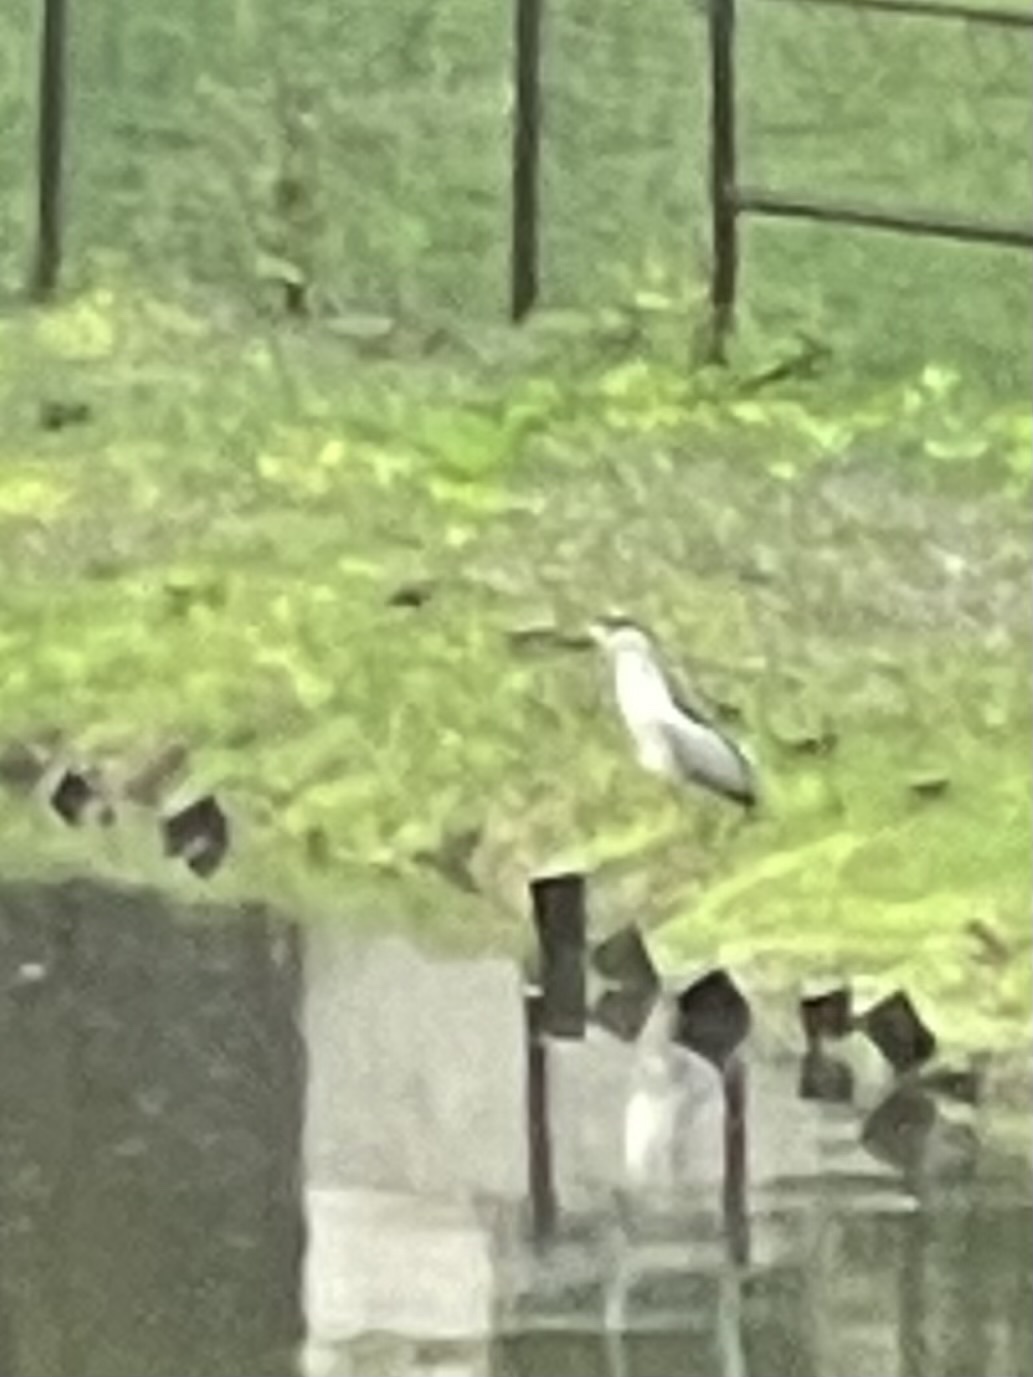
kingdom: Animalia
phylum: Chordata
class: Aves
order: Pelecaniformes
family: Ardeidae
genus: Nycticorax
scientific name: Nycticorax nycticorax
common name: Black-crowned night heron
